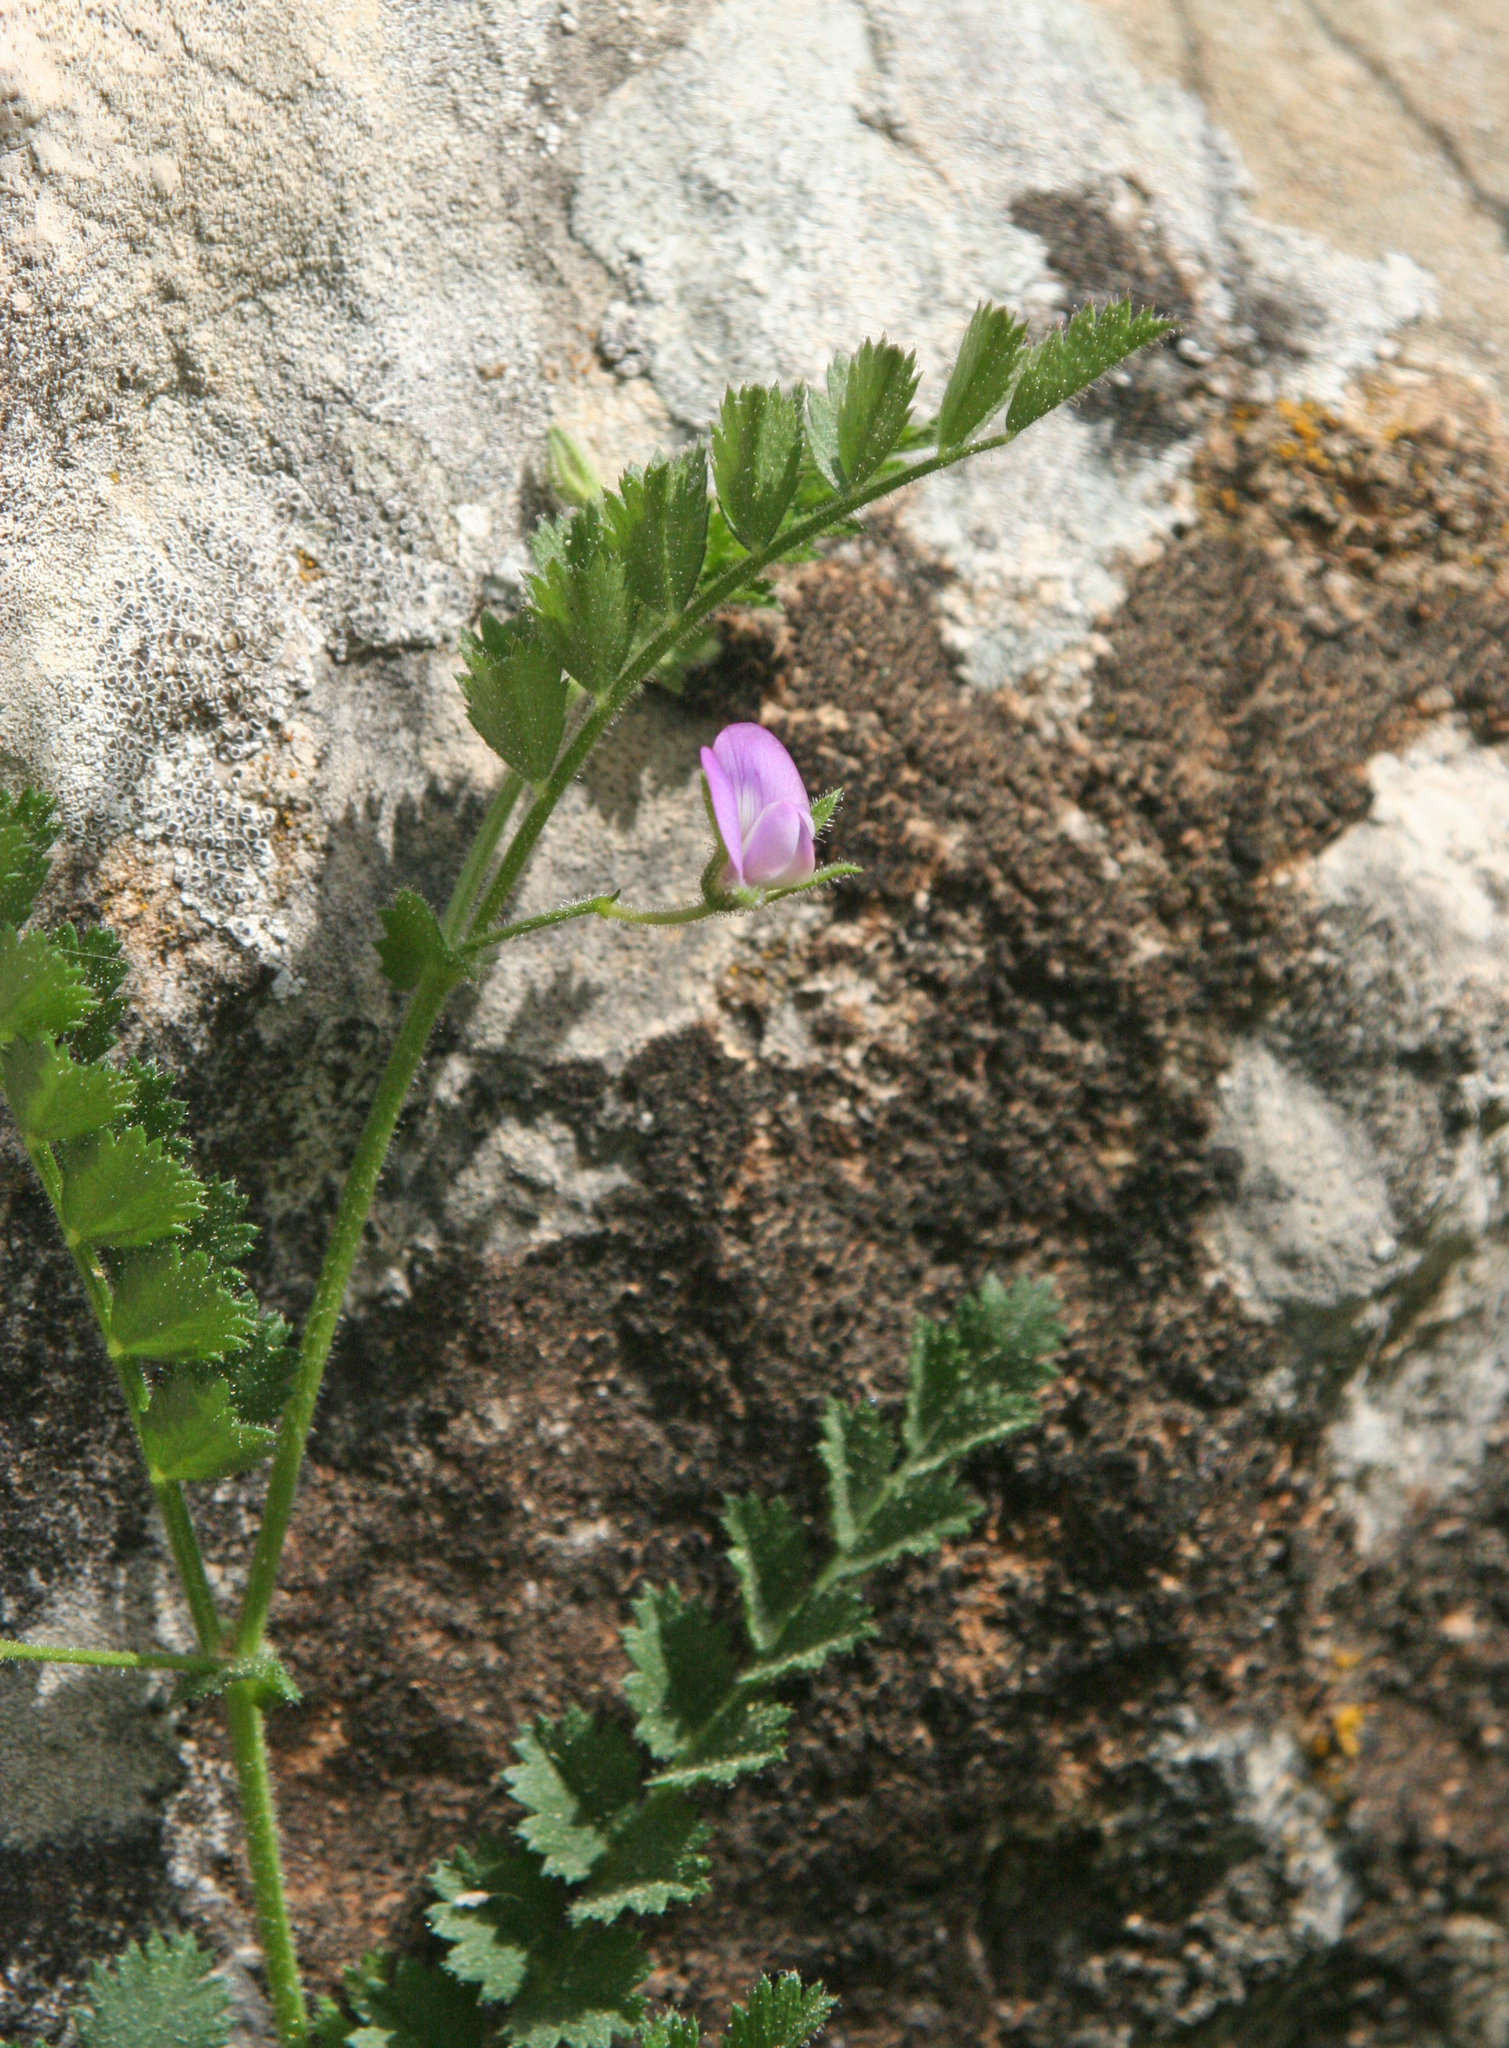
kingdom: Plantae
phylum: Tracheophyta
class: Magnoliopsida
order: Fabales
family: Fabaceae
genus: Cicer
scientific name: Cicer judaicum
